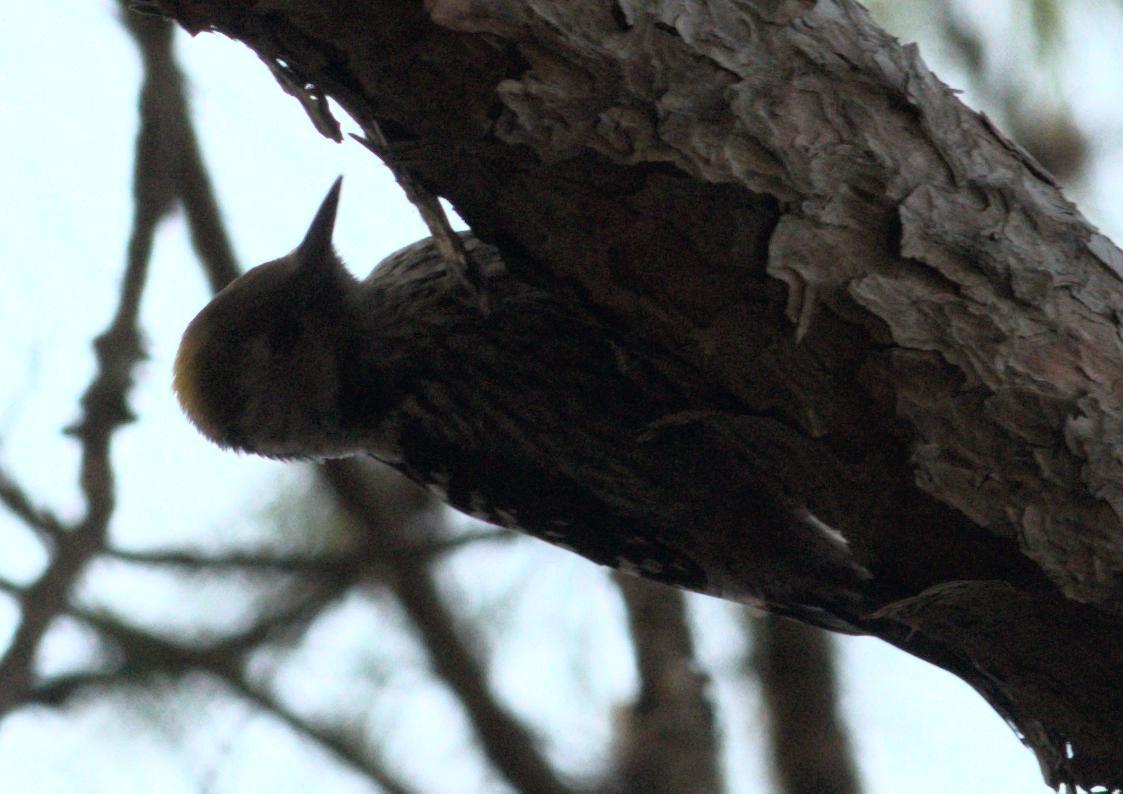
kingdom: Animalia
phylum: Chordata
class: Aves
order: Piciformes
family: Picidae
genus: Dendrocoptes
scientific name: Dendrocoptes auriceps
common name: Brown-fronted woodpecker
